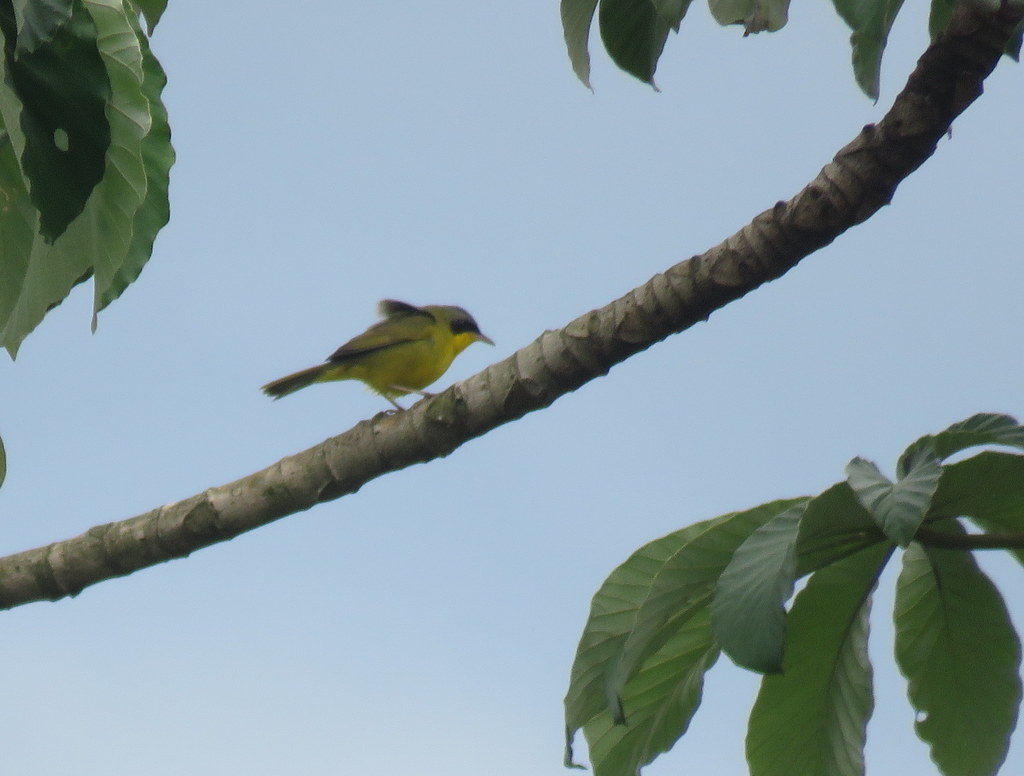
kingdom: Animalia
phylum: Chordata
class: Aves
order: Passeriformes
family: Parulidae
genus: Geothlypis
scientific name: Geothlypis velata
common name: Southern yellowthroat
